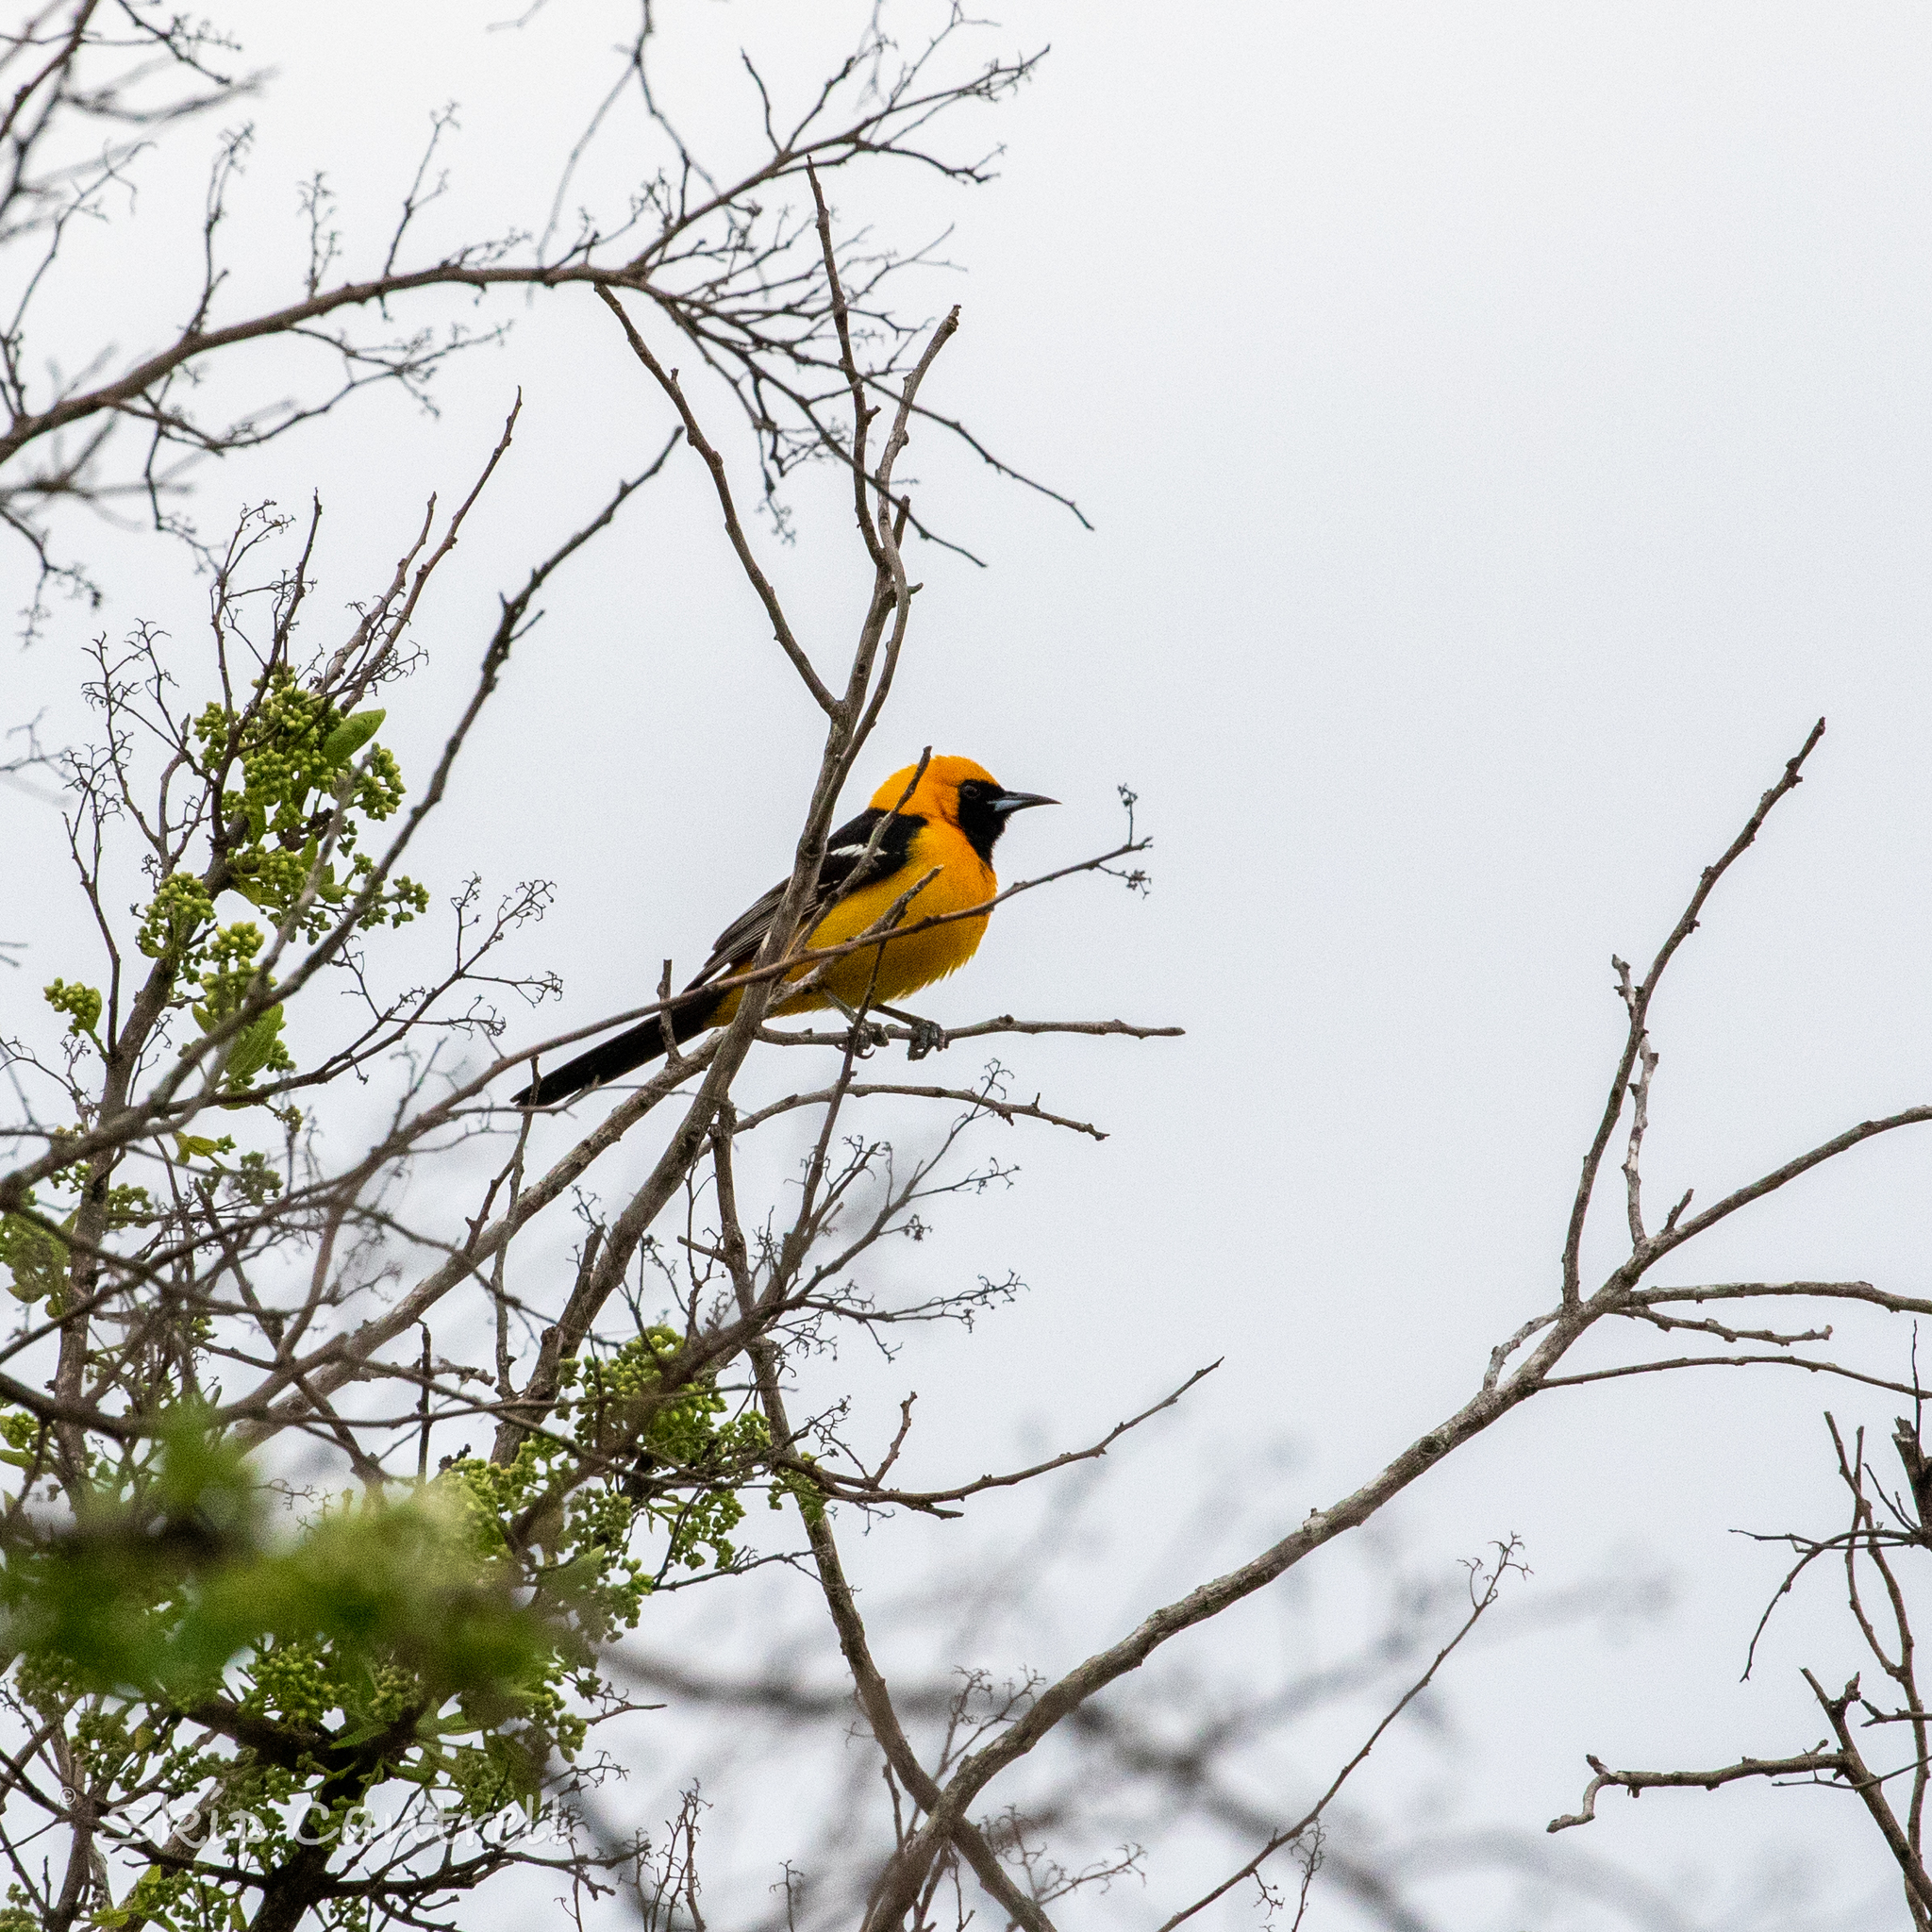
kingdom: Animalia
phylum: Chordata
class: Aves
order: Passeriformes
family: Icteridae
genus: Icterus
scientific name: Icterus cucullatus
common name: Hooded oriole
